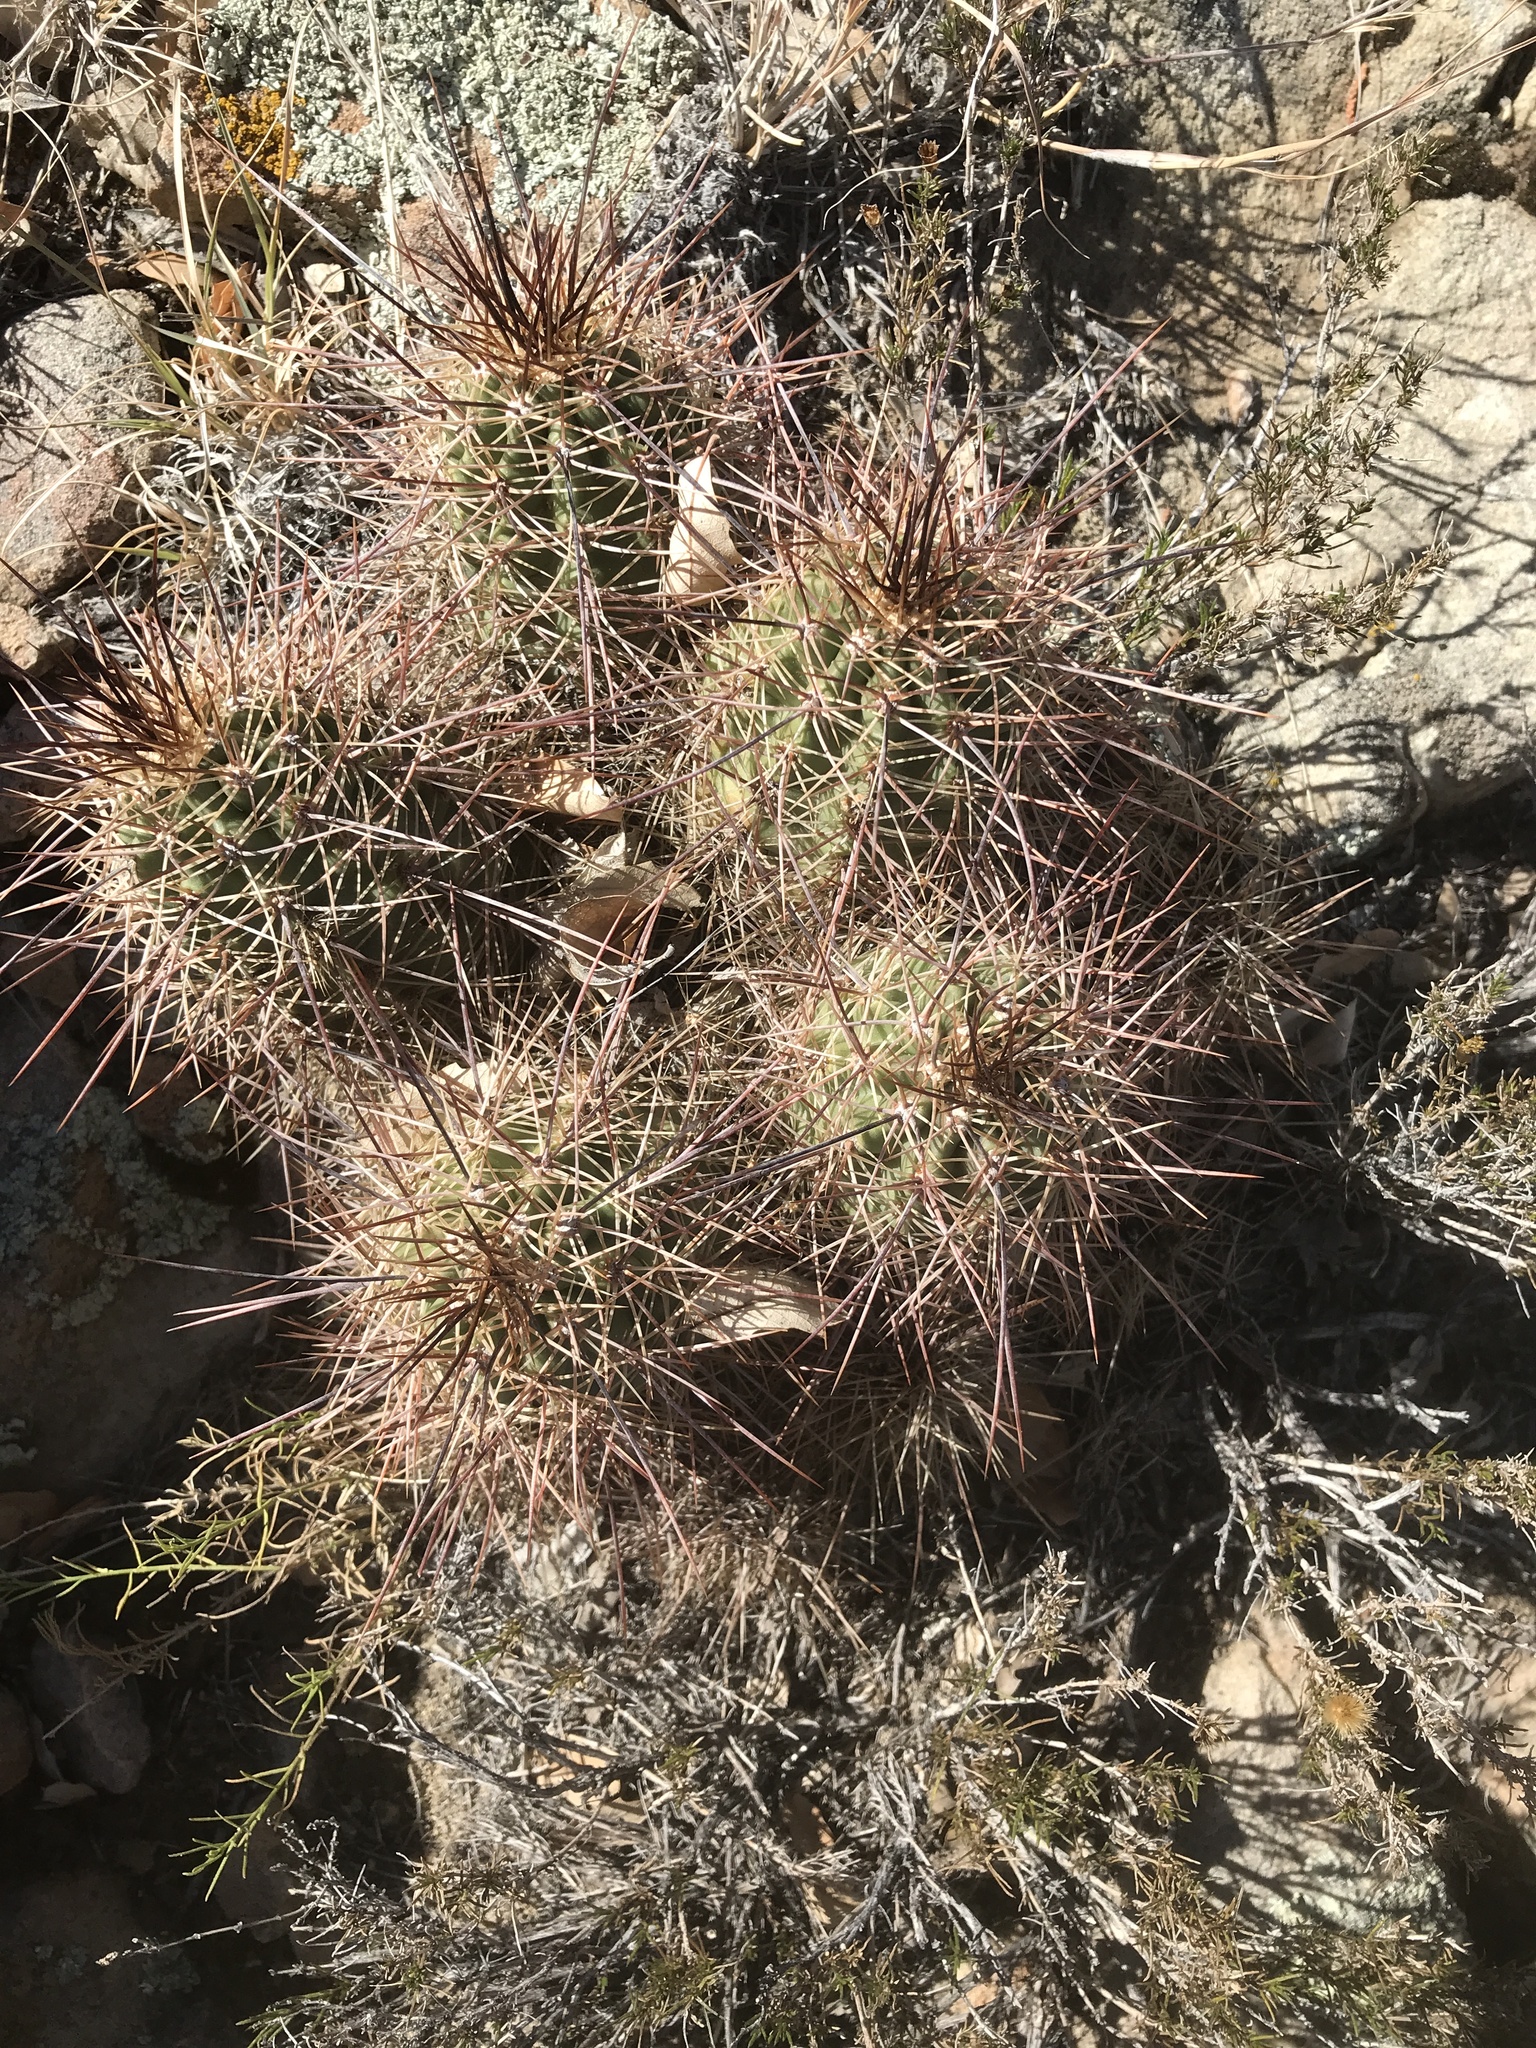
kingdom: Plantae
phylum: Tracheophyta
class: Magnoliopsida
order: Caryophyllales
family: Cactaceae
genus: Echinocereus
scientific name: Echinocereus coccineus
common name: Scarlet hedgehog cactus
